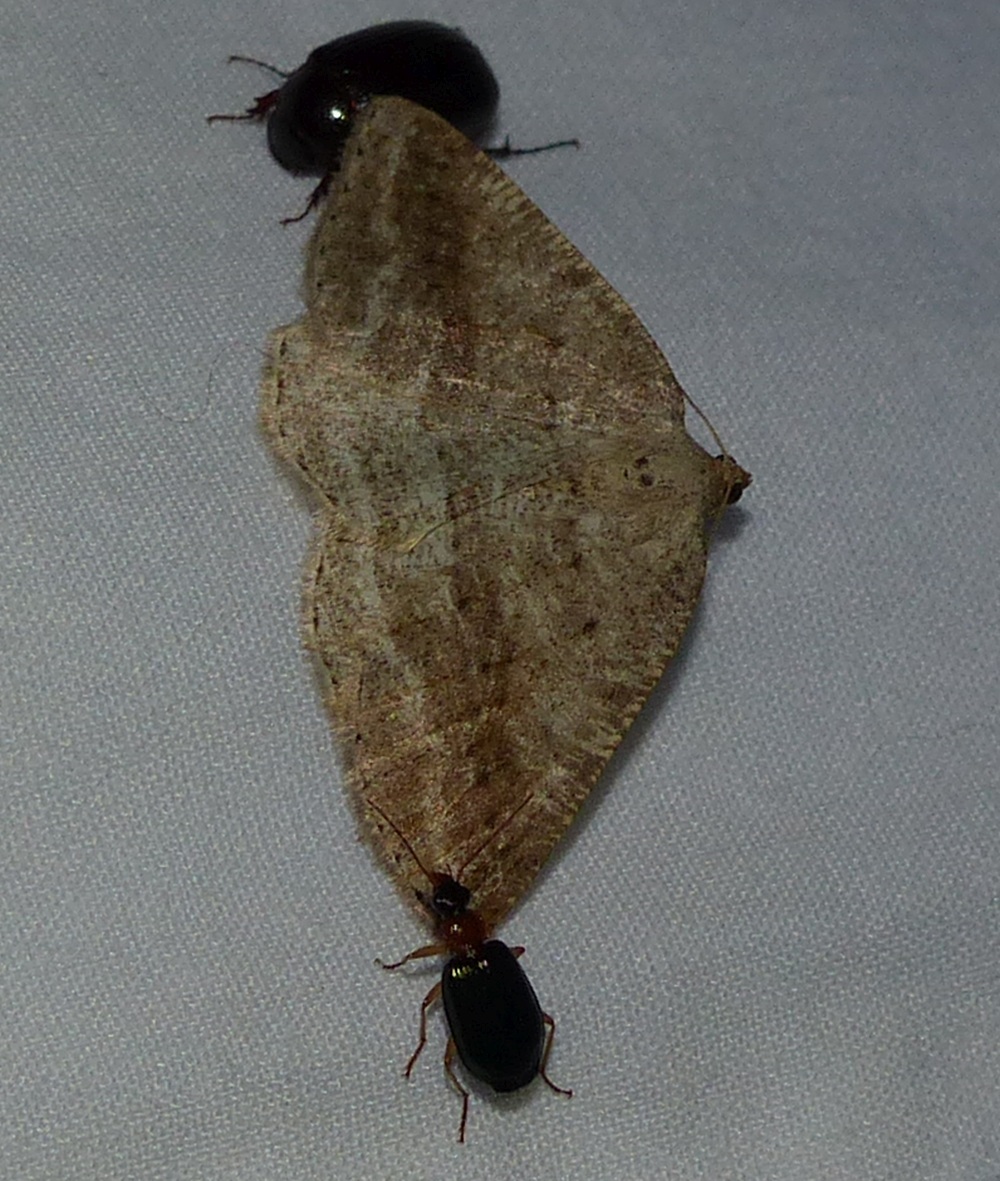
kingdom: Animalia
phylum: Arthropoda
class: Insecta
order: Lepidoptera
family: Geometridae
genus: Tacparia
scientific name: Tacparia detersata
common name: Pale alder moth
